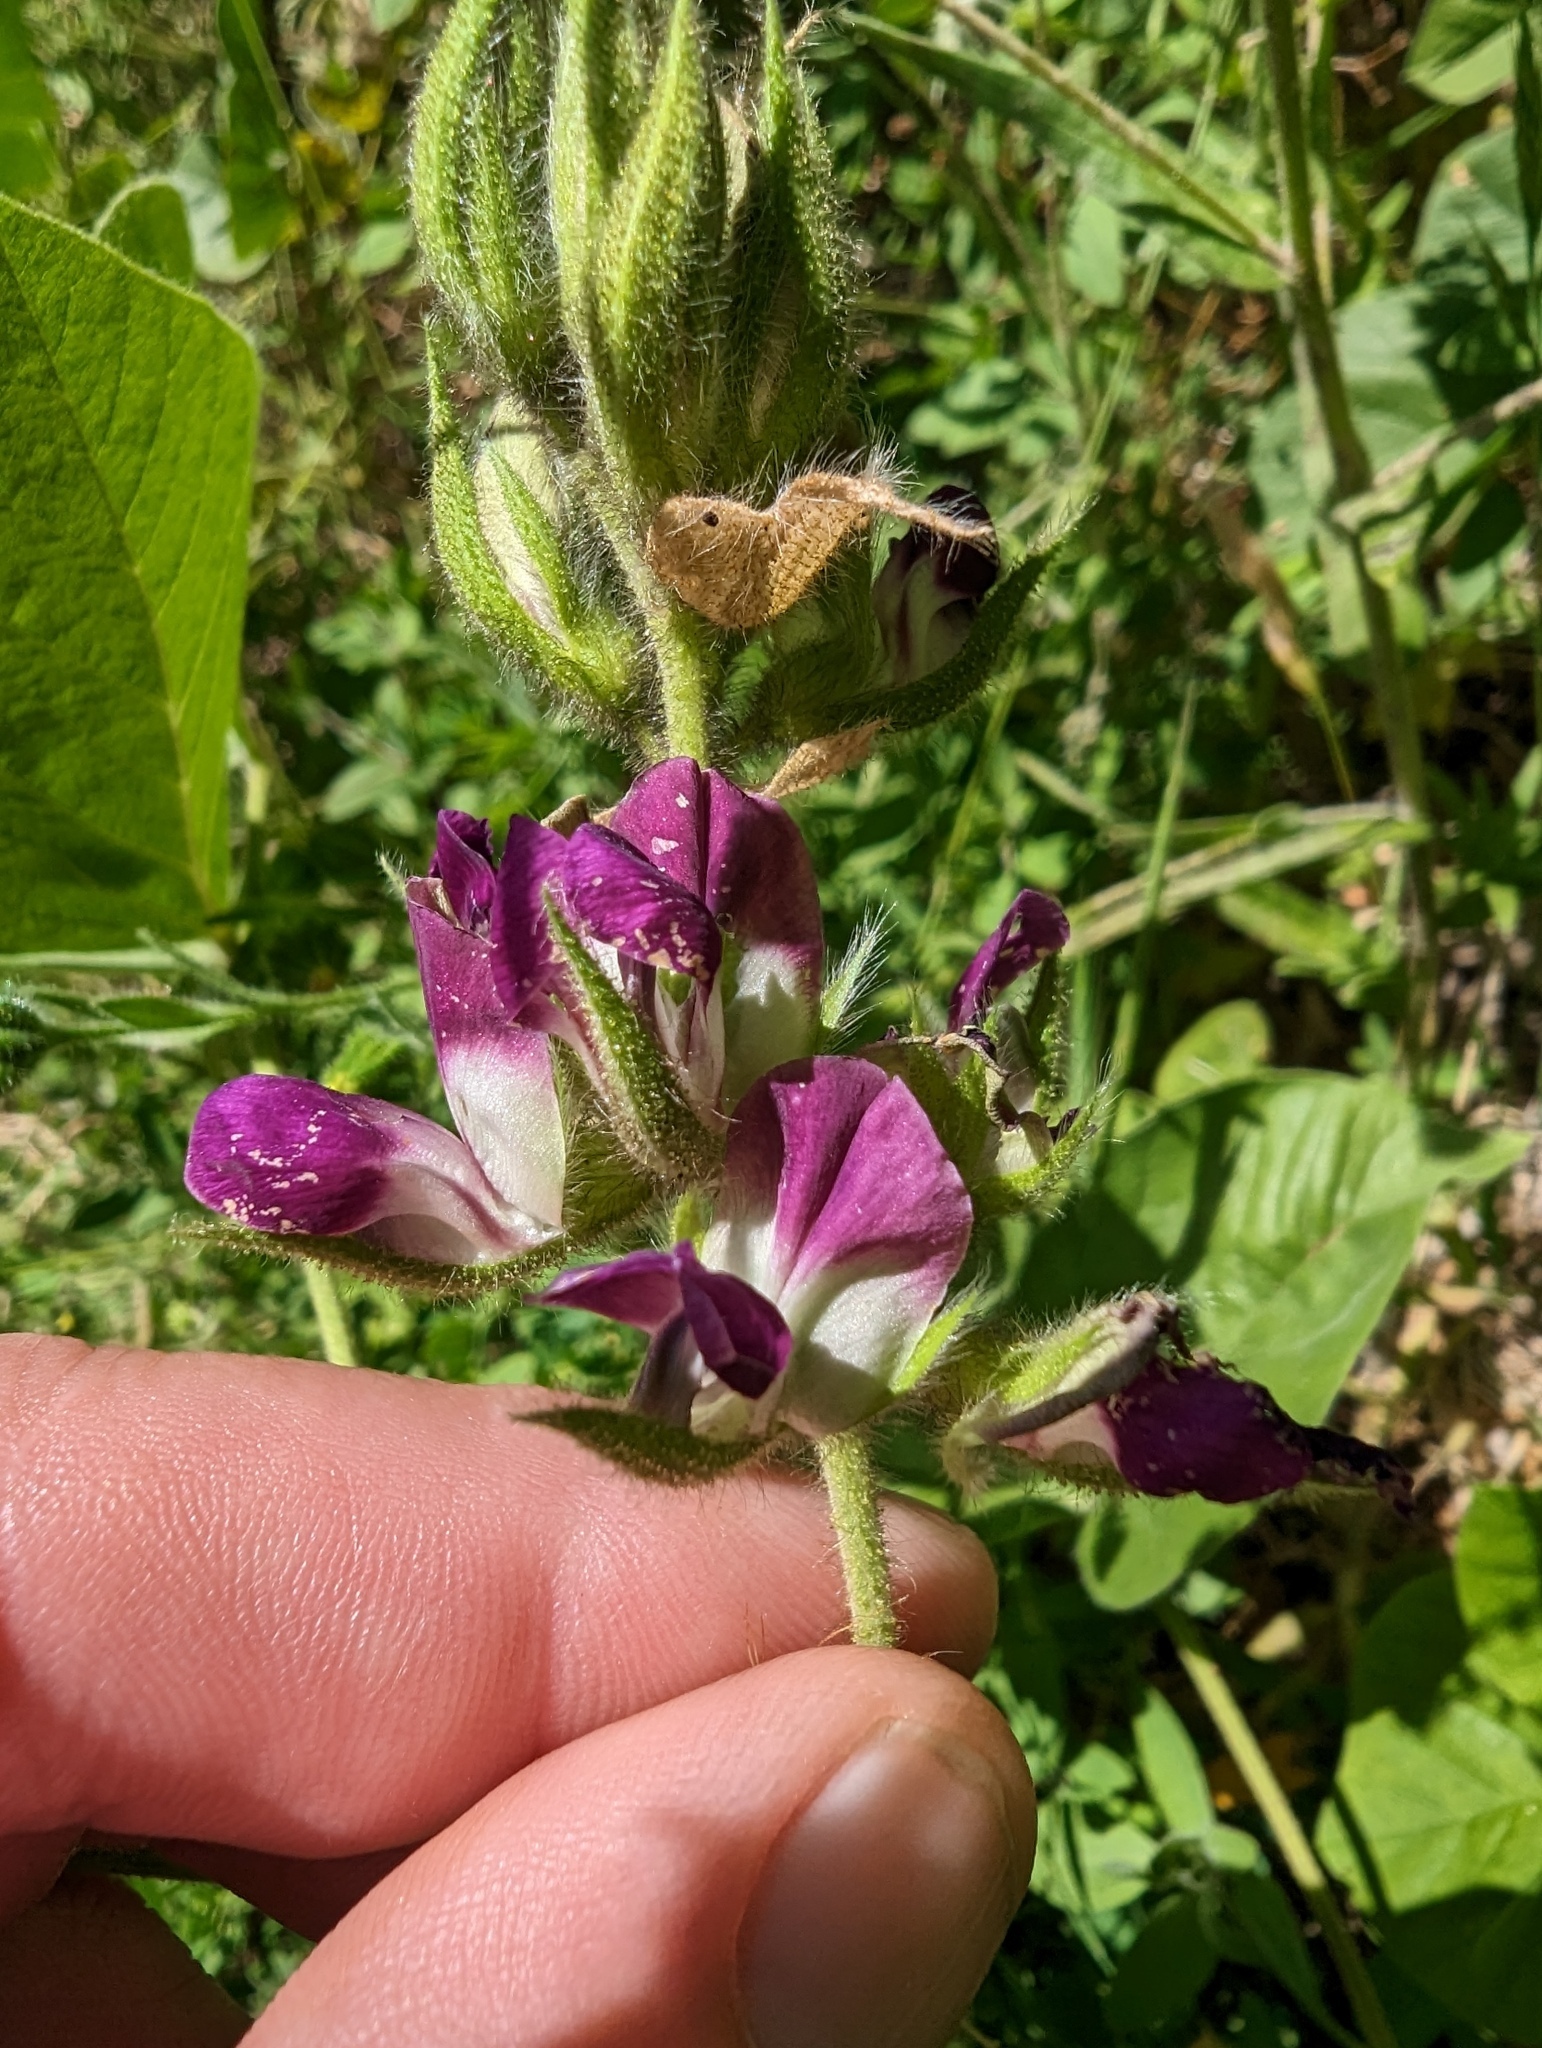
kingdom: Plantae
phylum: Tracheophyta
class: Magnoliopsida
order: Fabales
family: Fabaceae
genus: Hoita
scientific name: Hoita strobilina
